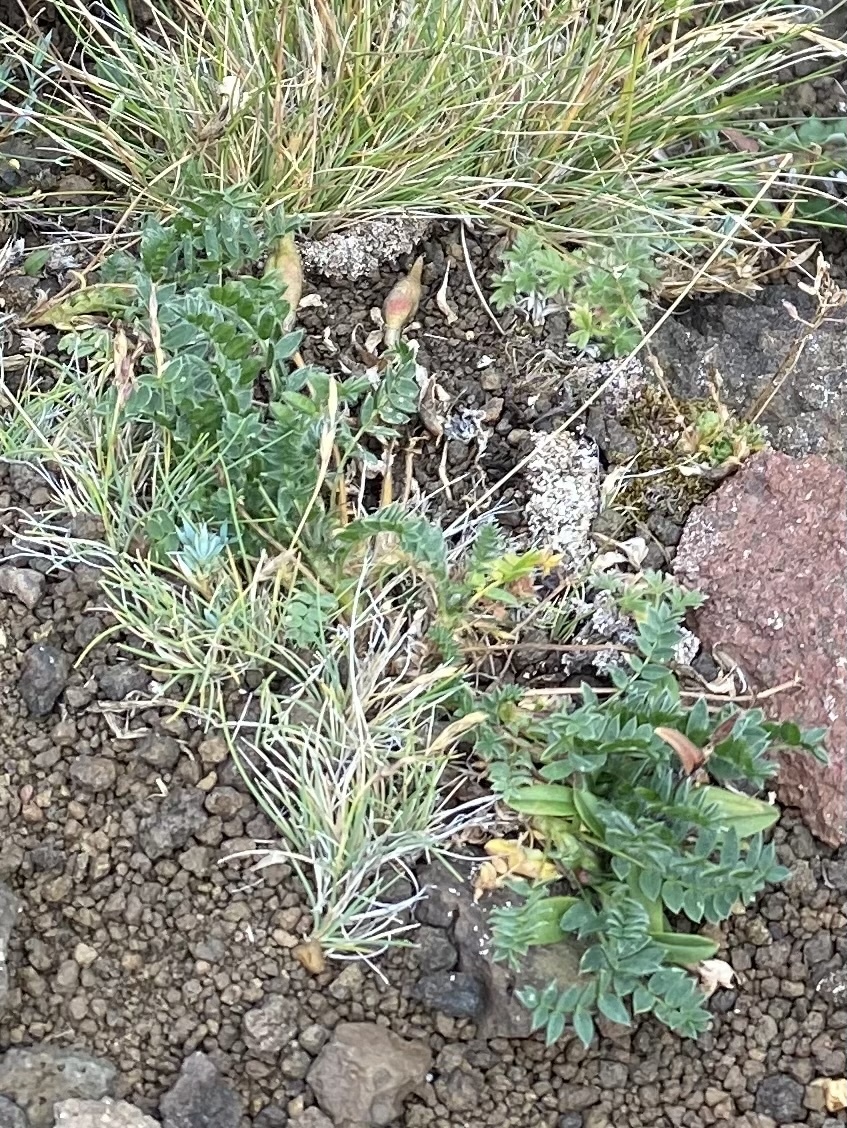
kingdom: Plantae
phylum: Tracheophyta
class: Magnoliopsida
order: Fabales
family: Fabaceae
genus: Oxytropis
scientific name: Oxytropis nigrescens
